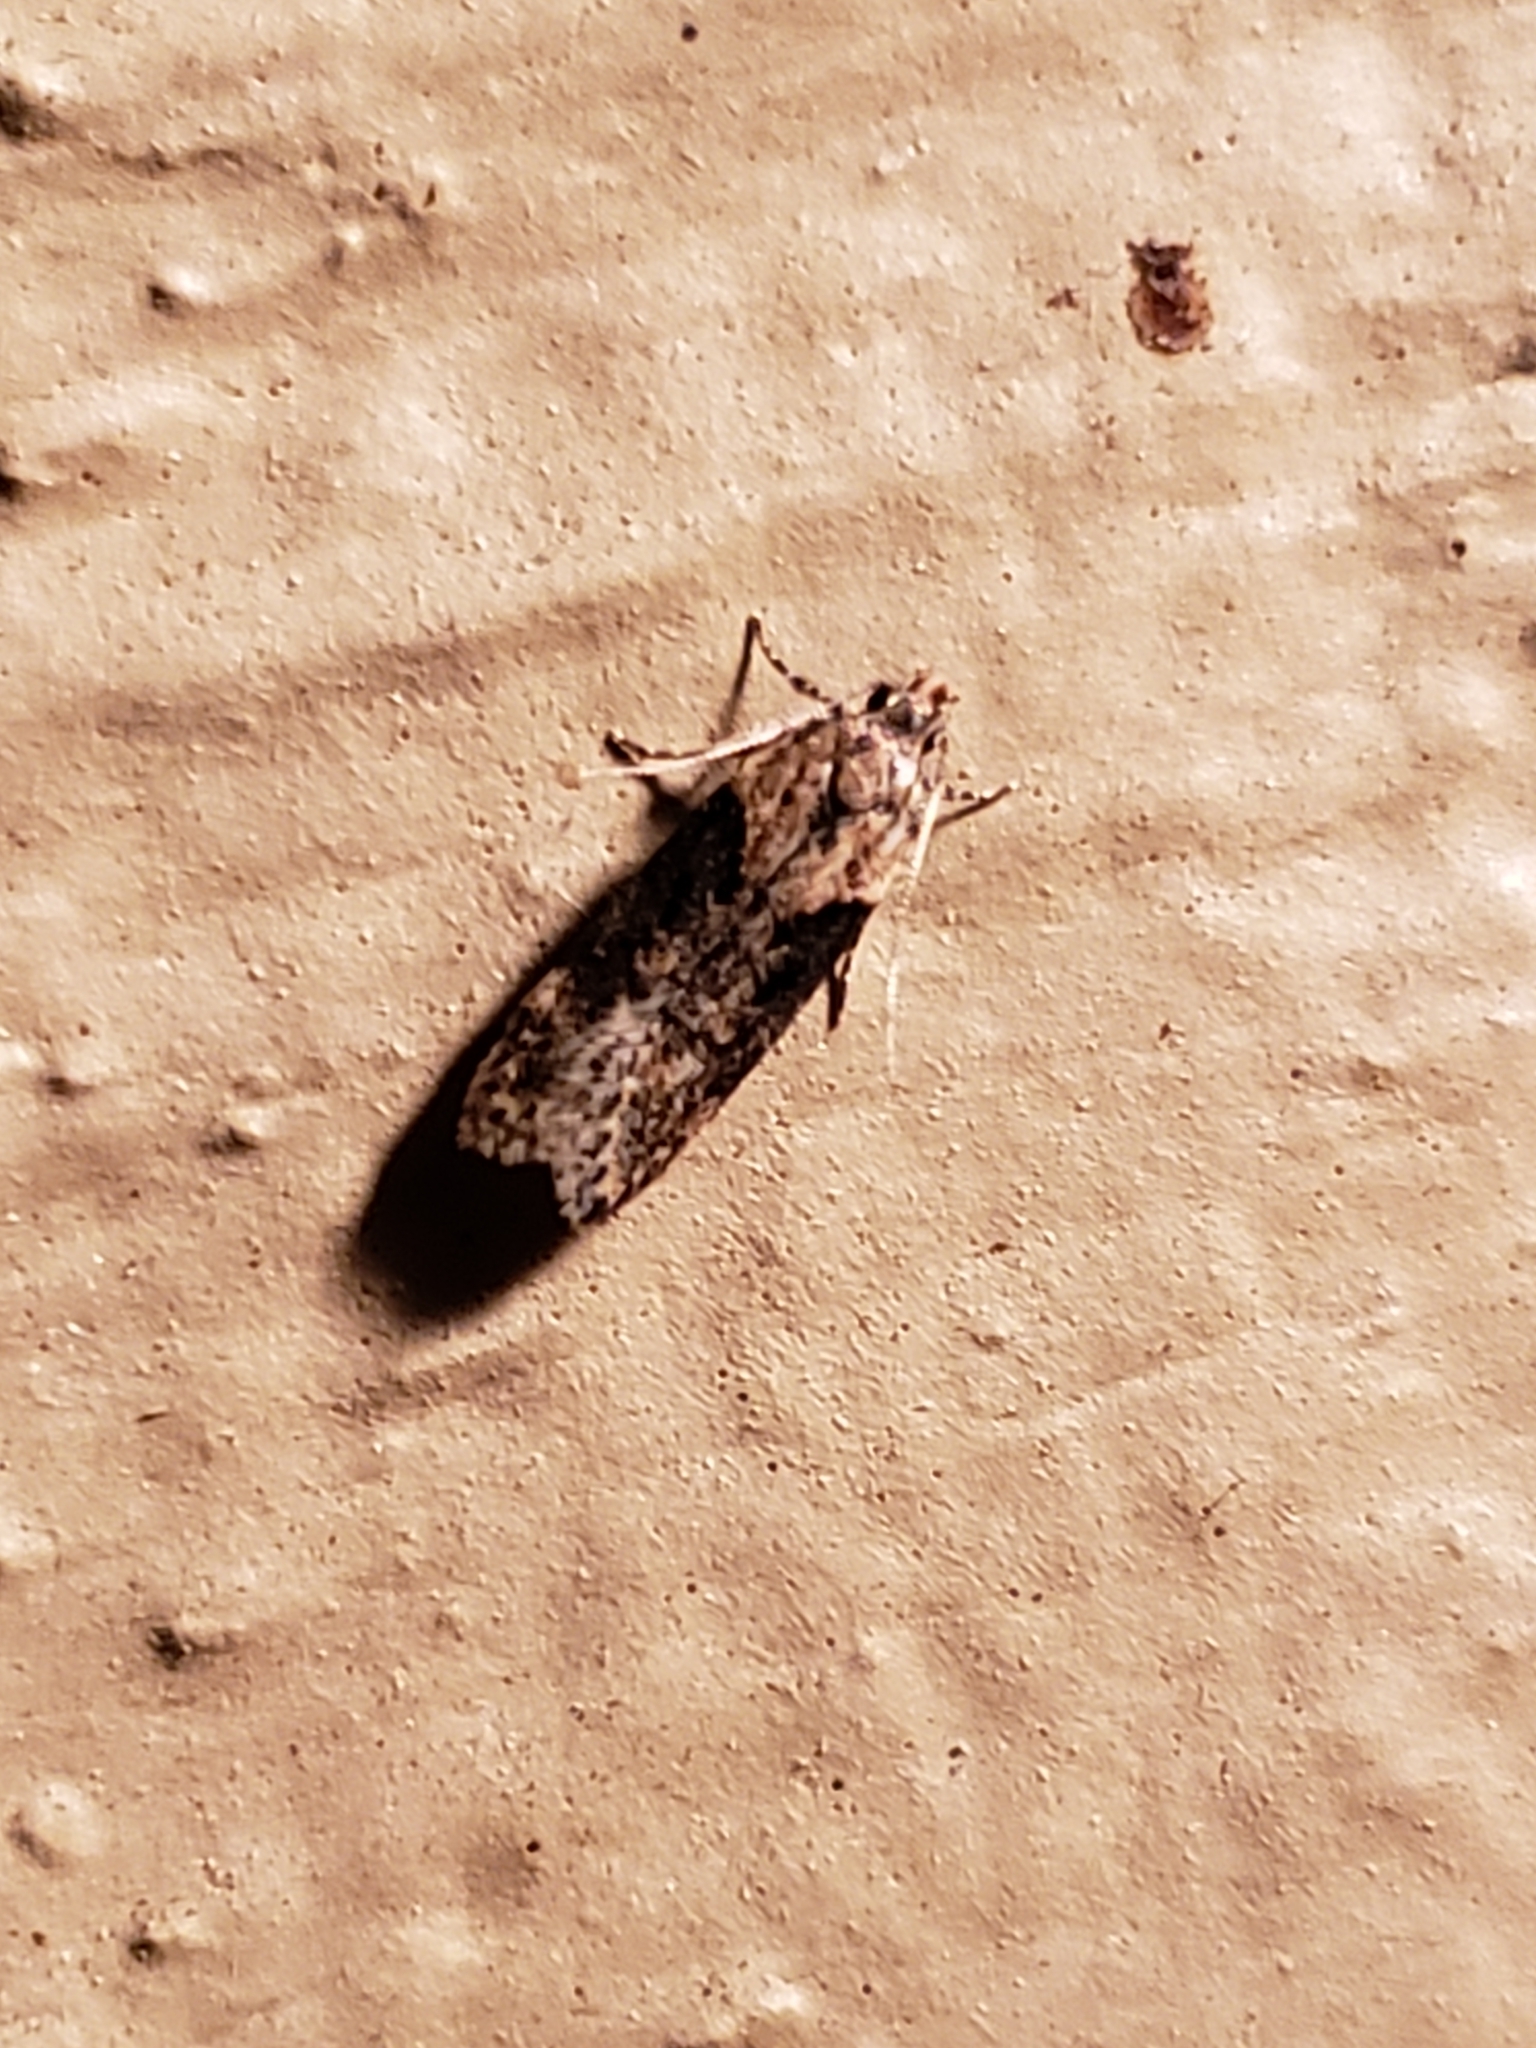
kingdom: Animalia
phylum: Arthropoda
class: Insecta
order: Lepidoptera
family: Gelechiidae
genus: Chionodes
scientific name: Chionodes mediofuscella
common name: Black-smudged chionodes moth
